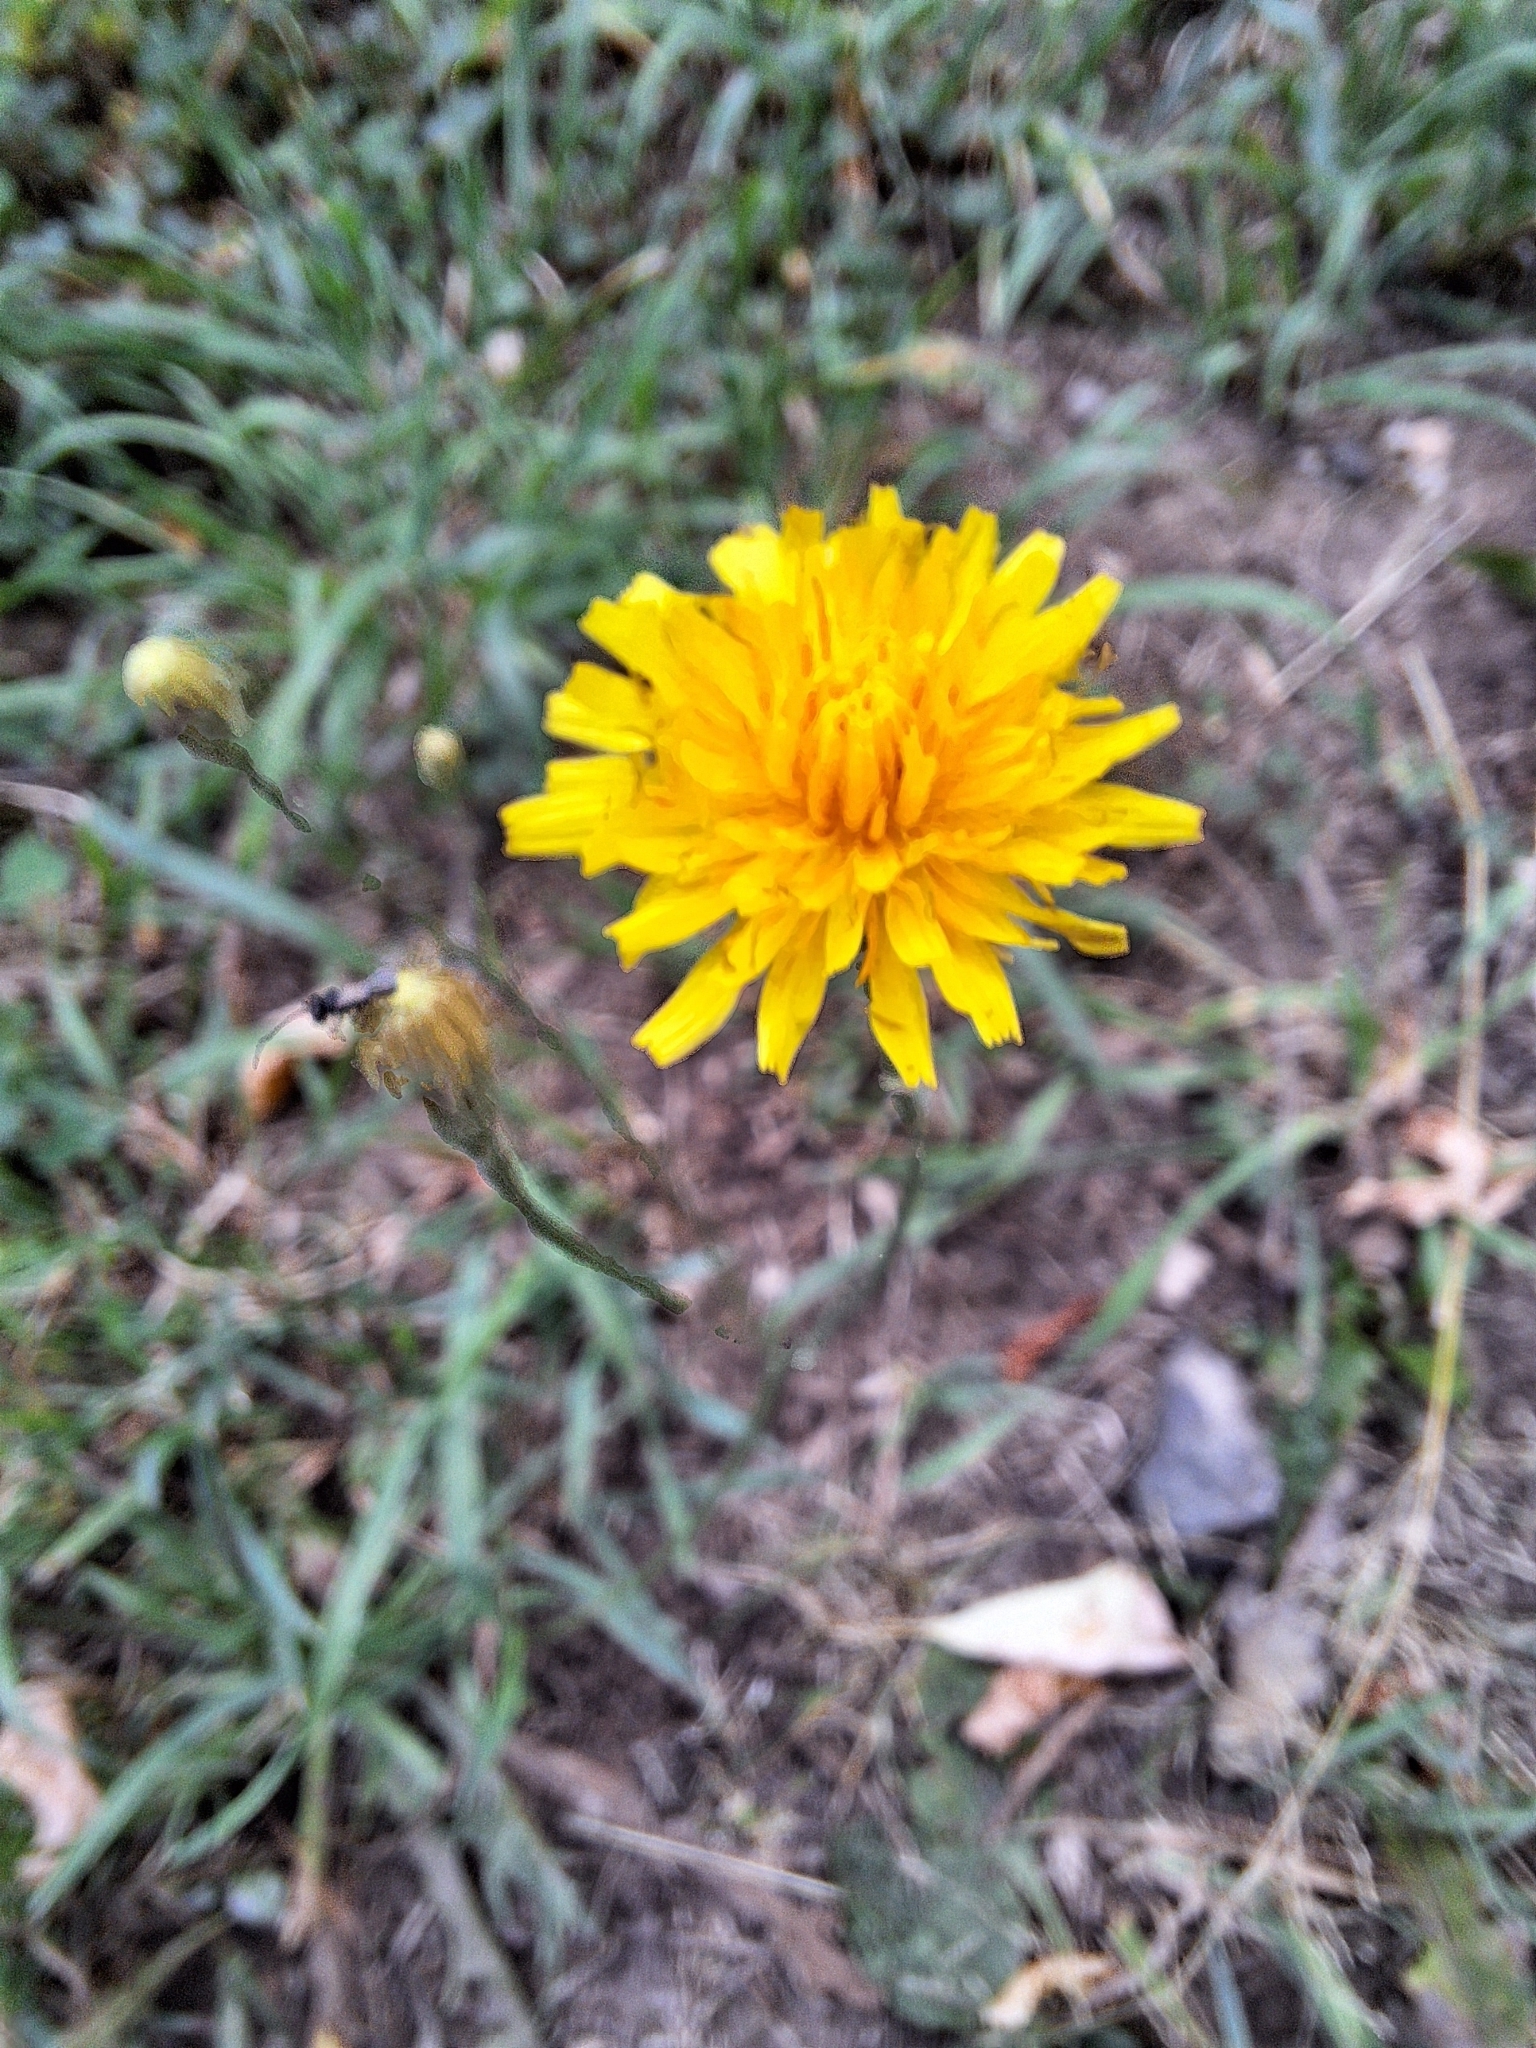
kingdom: Plantae
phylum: Tracheophyta
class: Magnoliopsida
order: Asterales
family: Asteraceae
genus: Scorzoneroides
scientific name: Scorzoneroides autumnalis
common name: Autumn hawkbit
